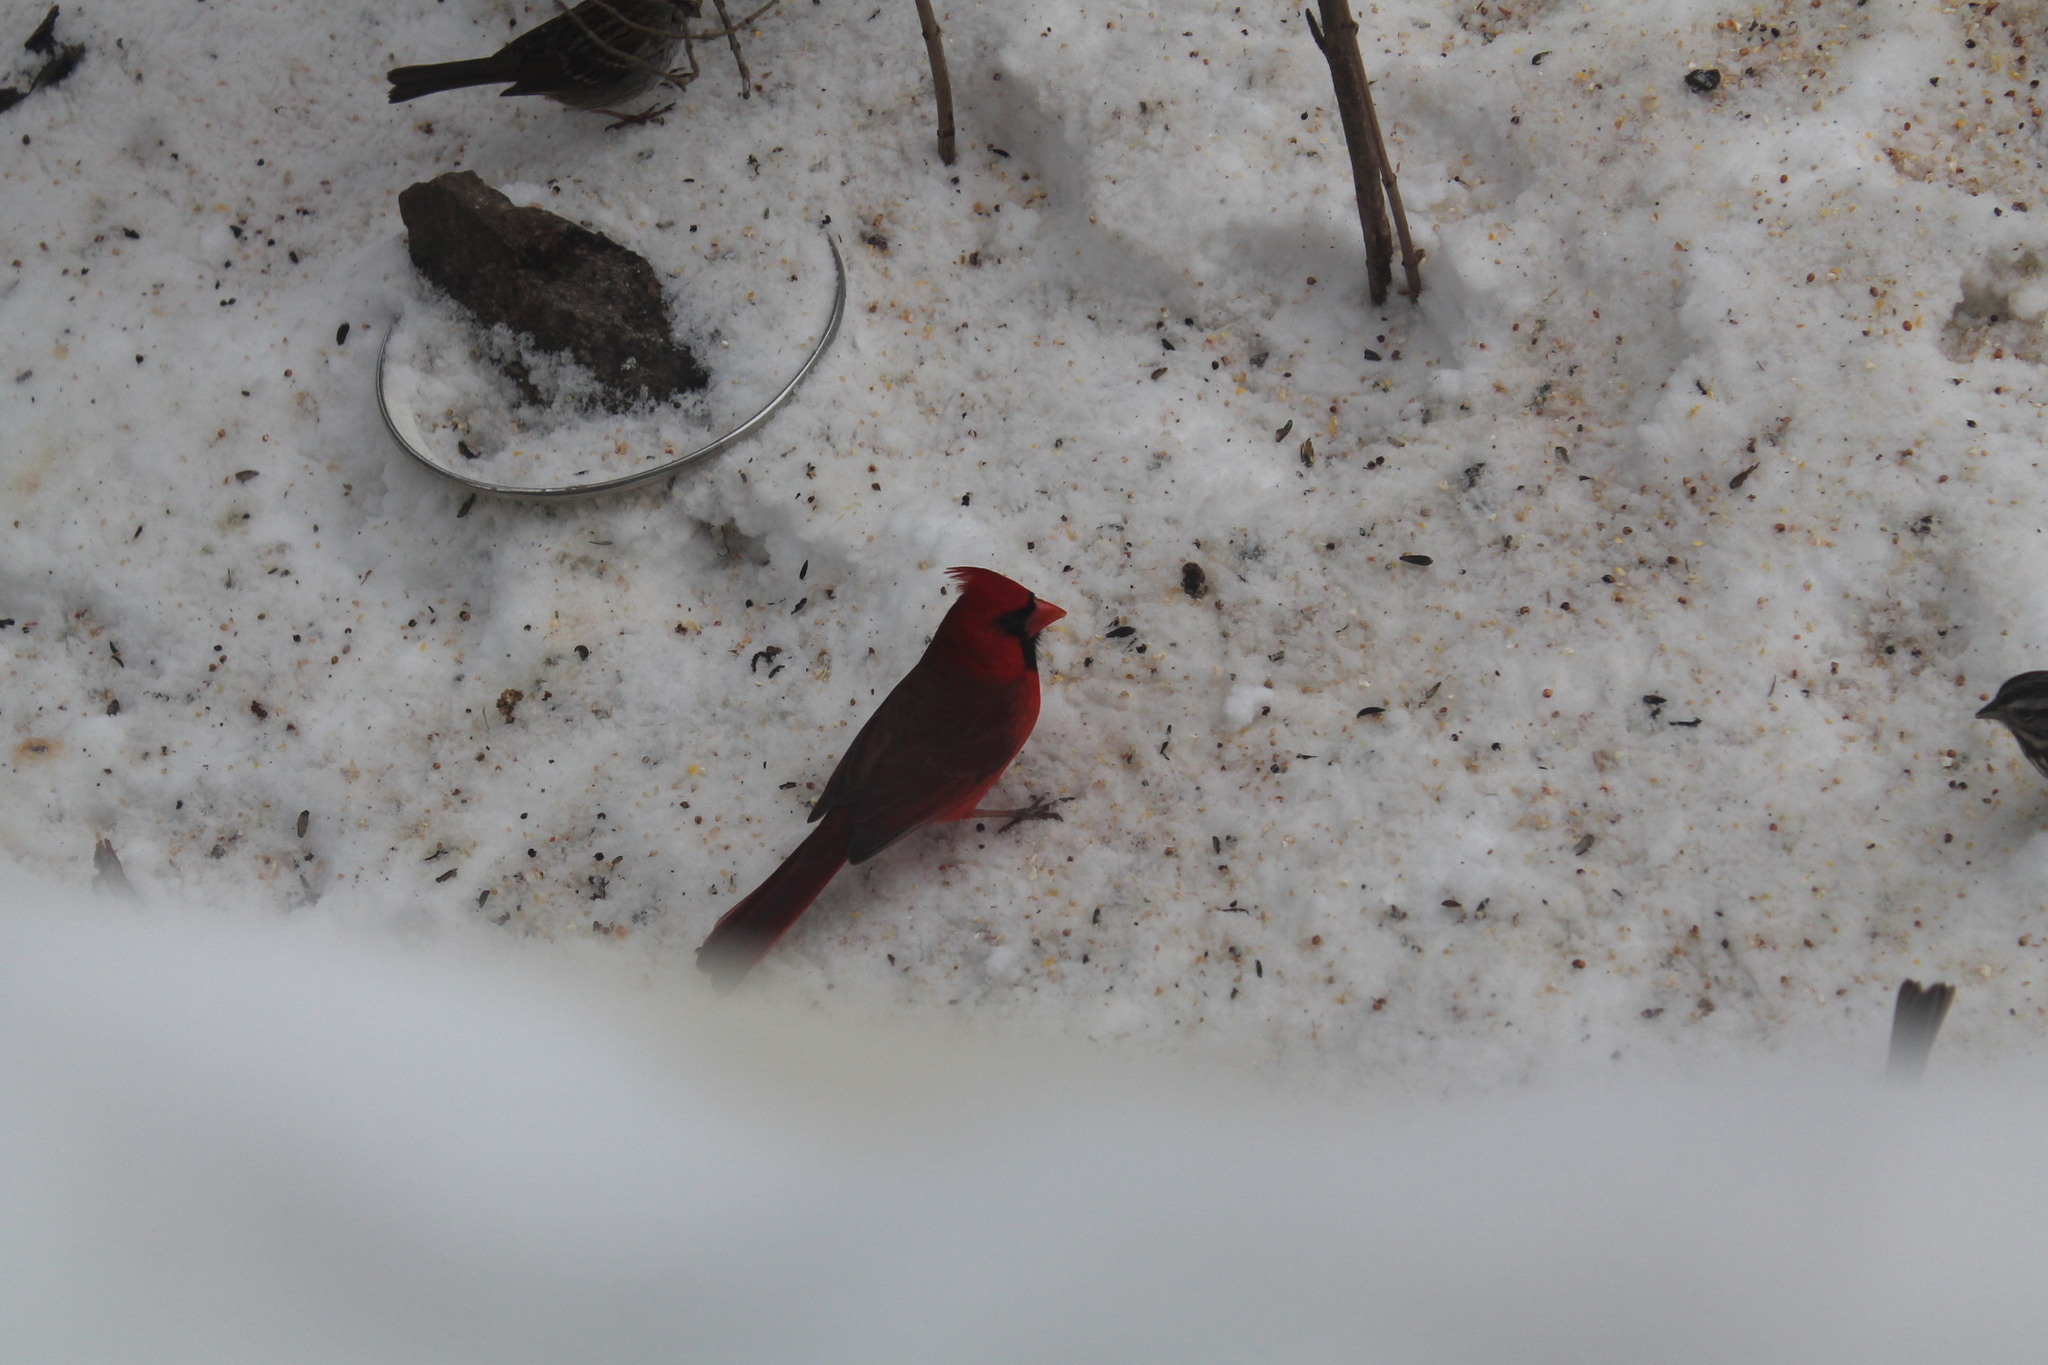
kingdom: Animalia
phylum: Chordata
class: Aves
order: Passeriformes
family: Cardinalidae
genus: Cardinalis
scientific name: Cardinalis cardinalis
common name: Northern cardinal
